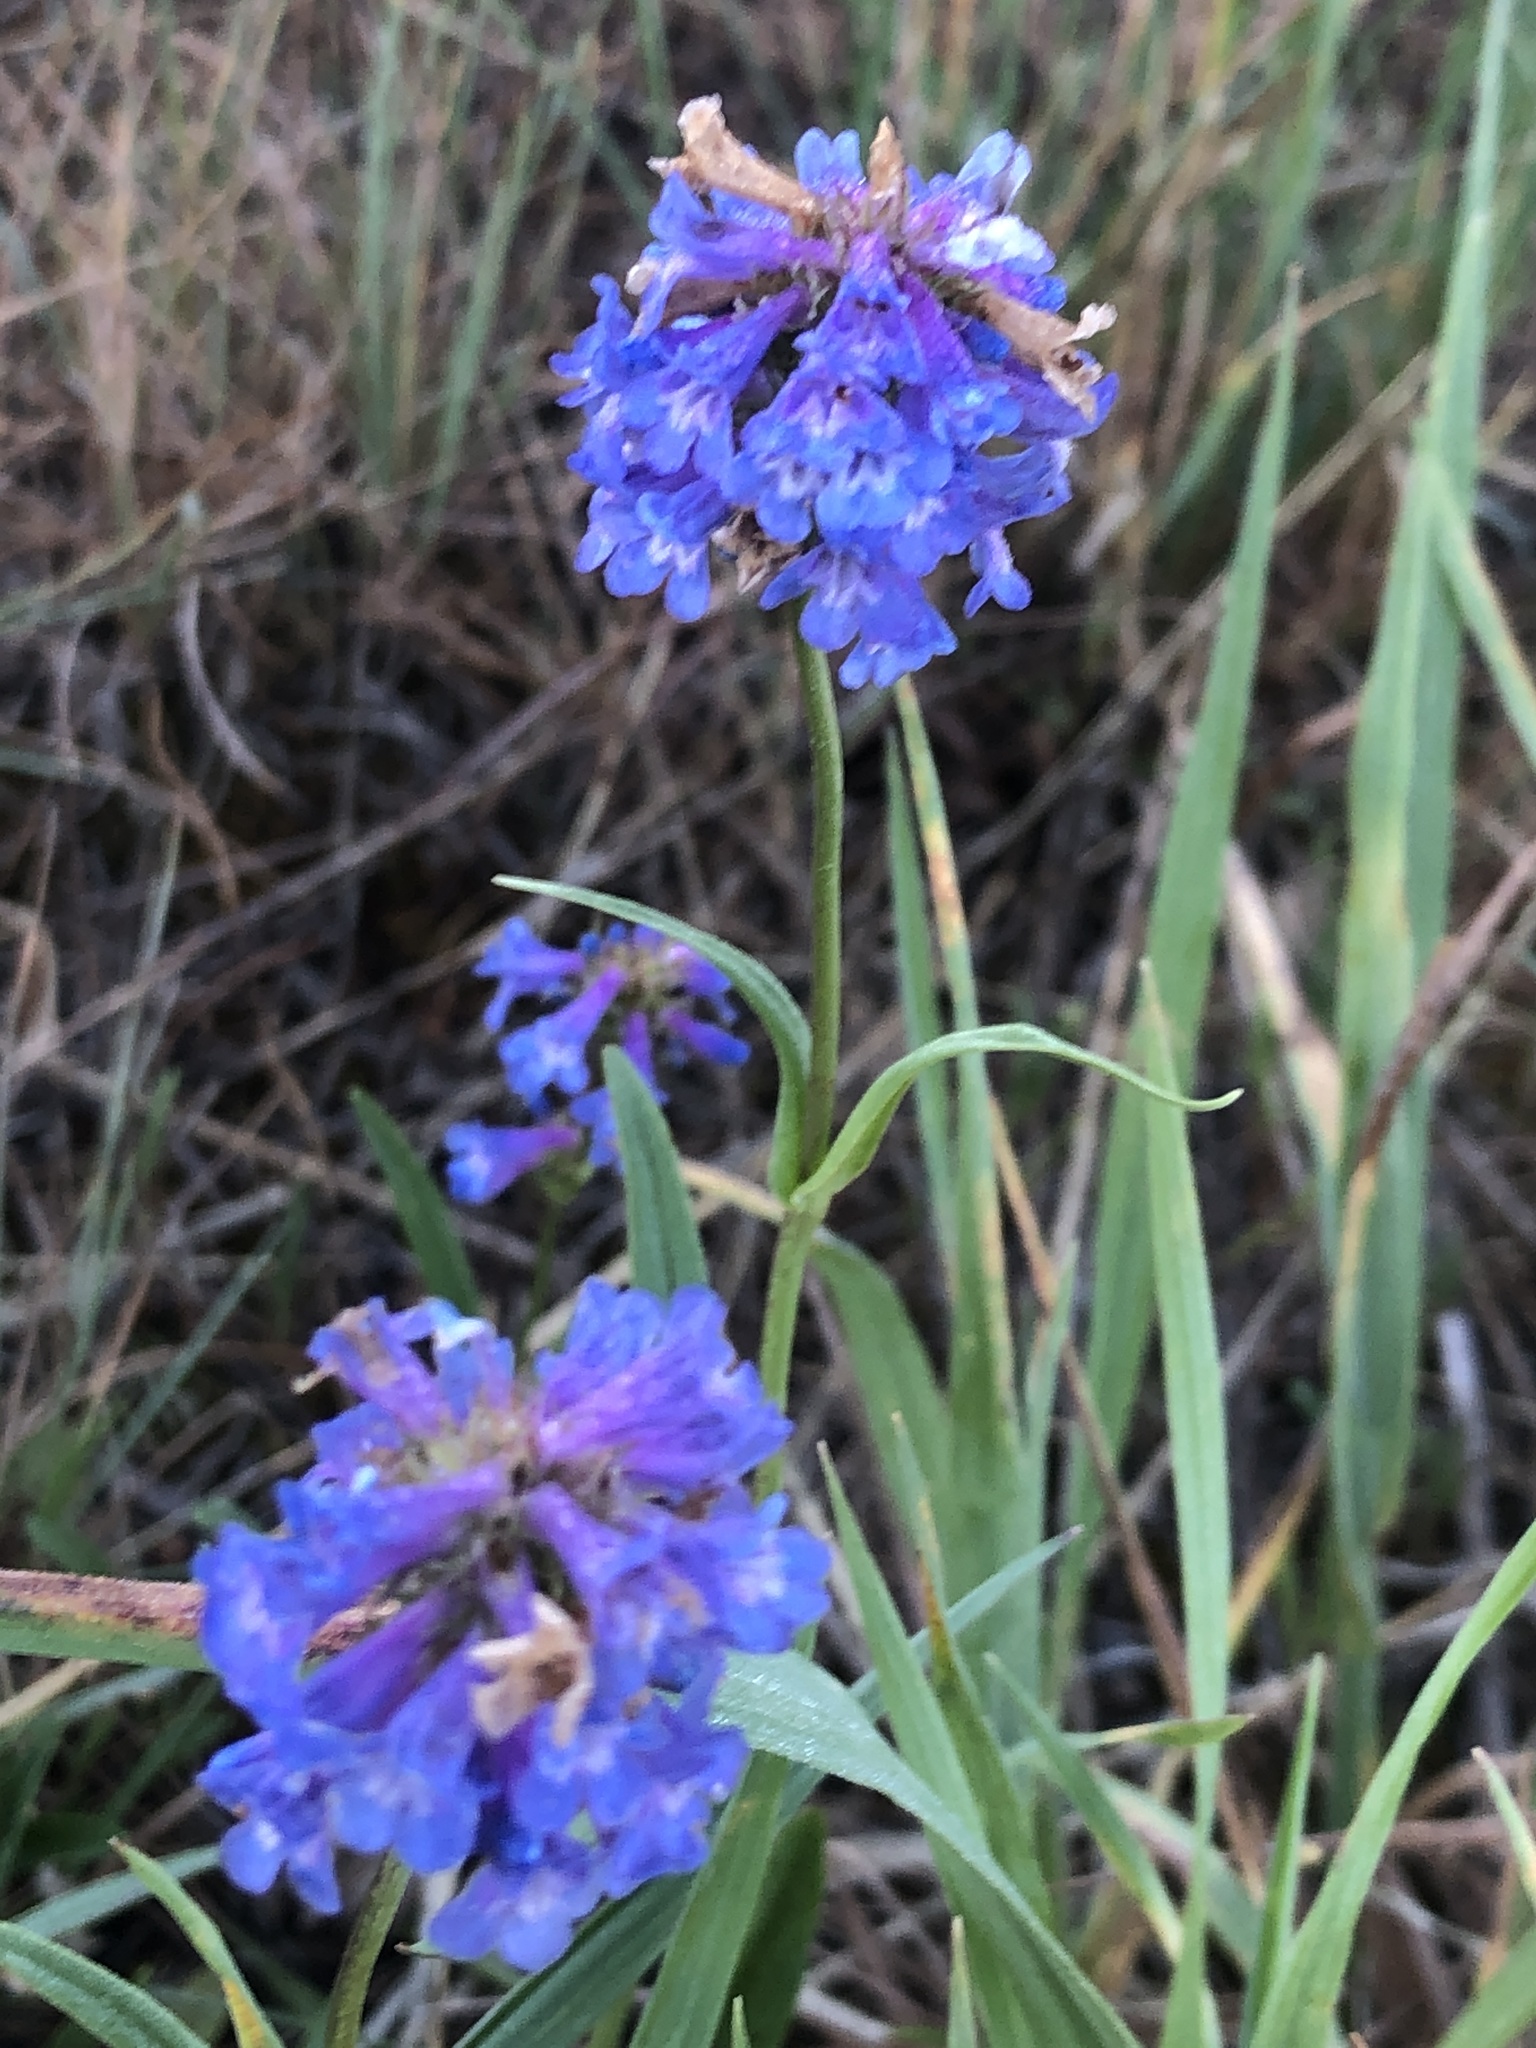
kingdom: Plantae
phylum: Tracheophyta
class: Magnoliopsida
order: Lamiales
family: Plantaginaceae
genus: Penstemon
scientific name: Penstemon procerus
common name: Small-flower penstemon
